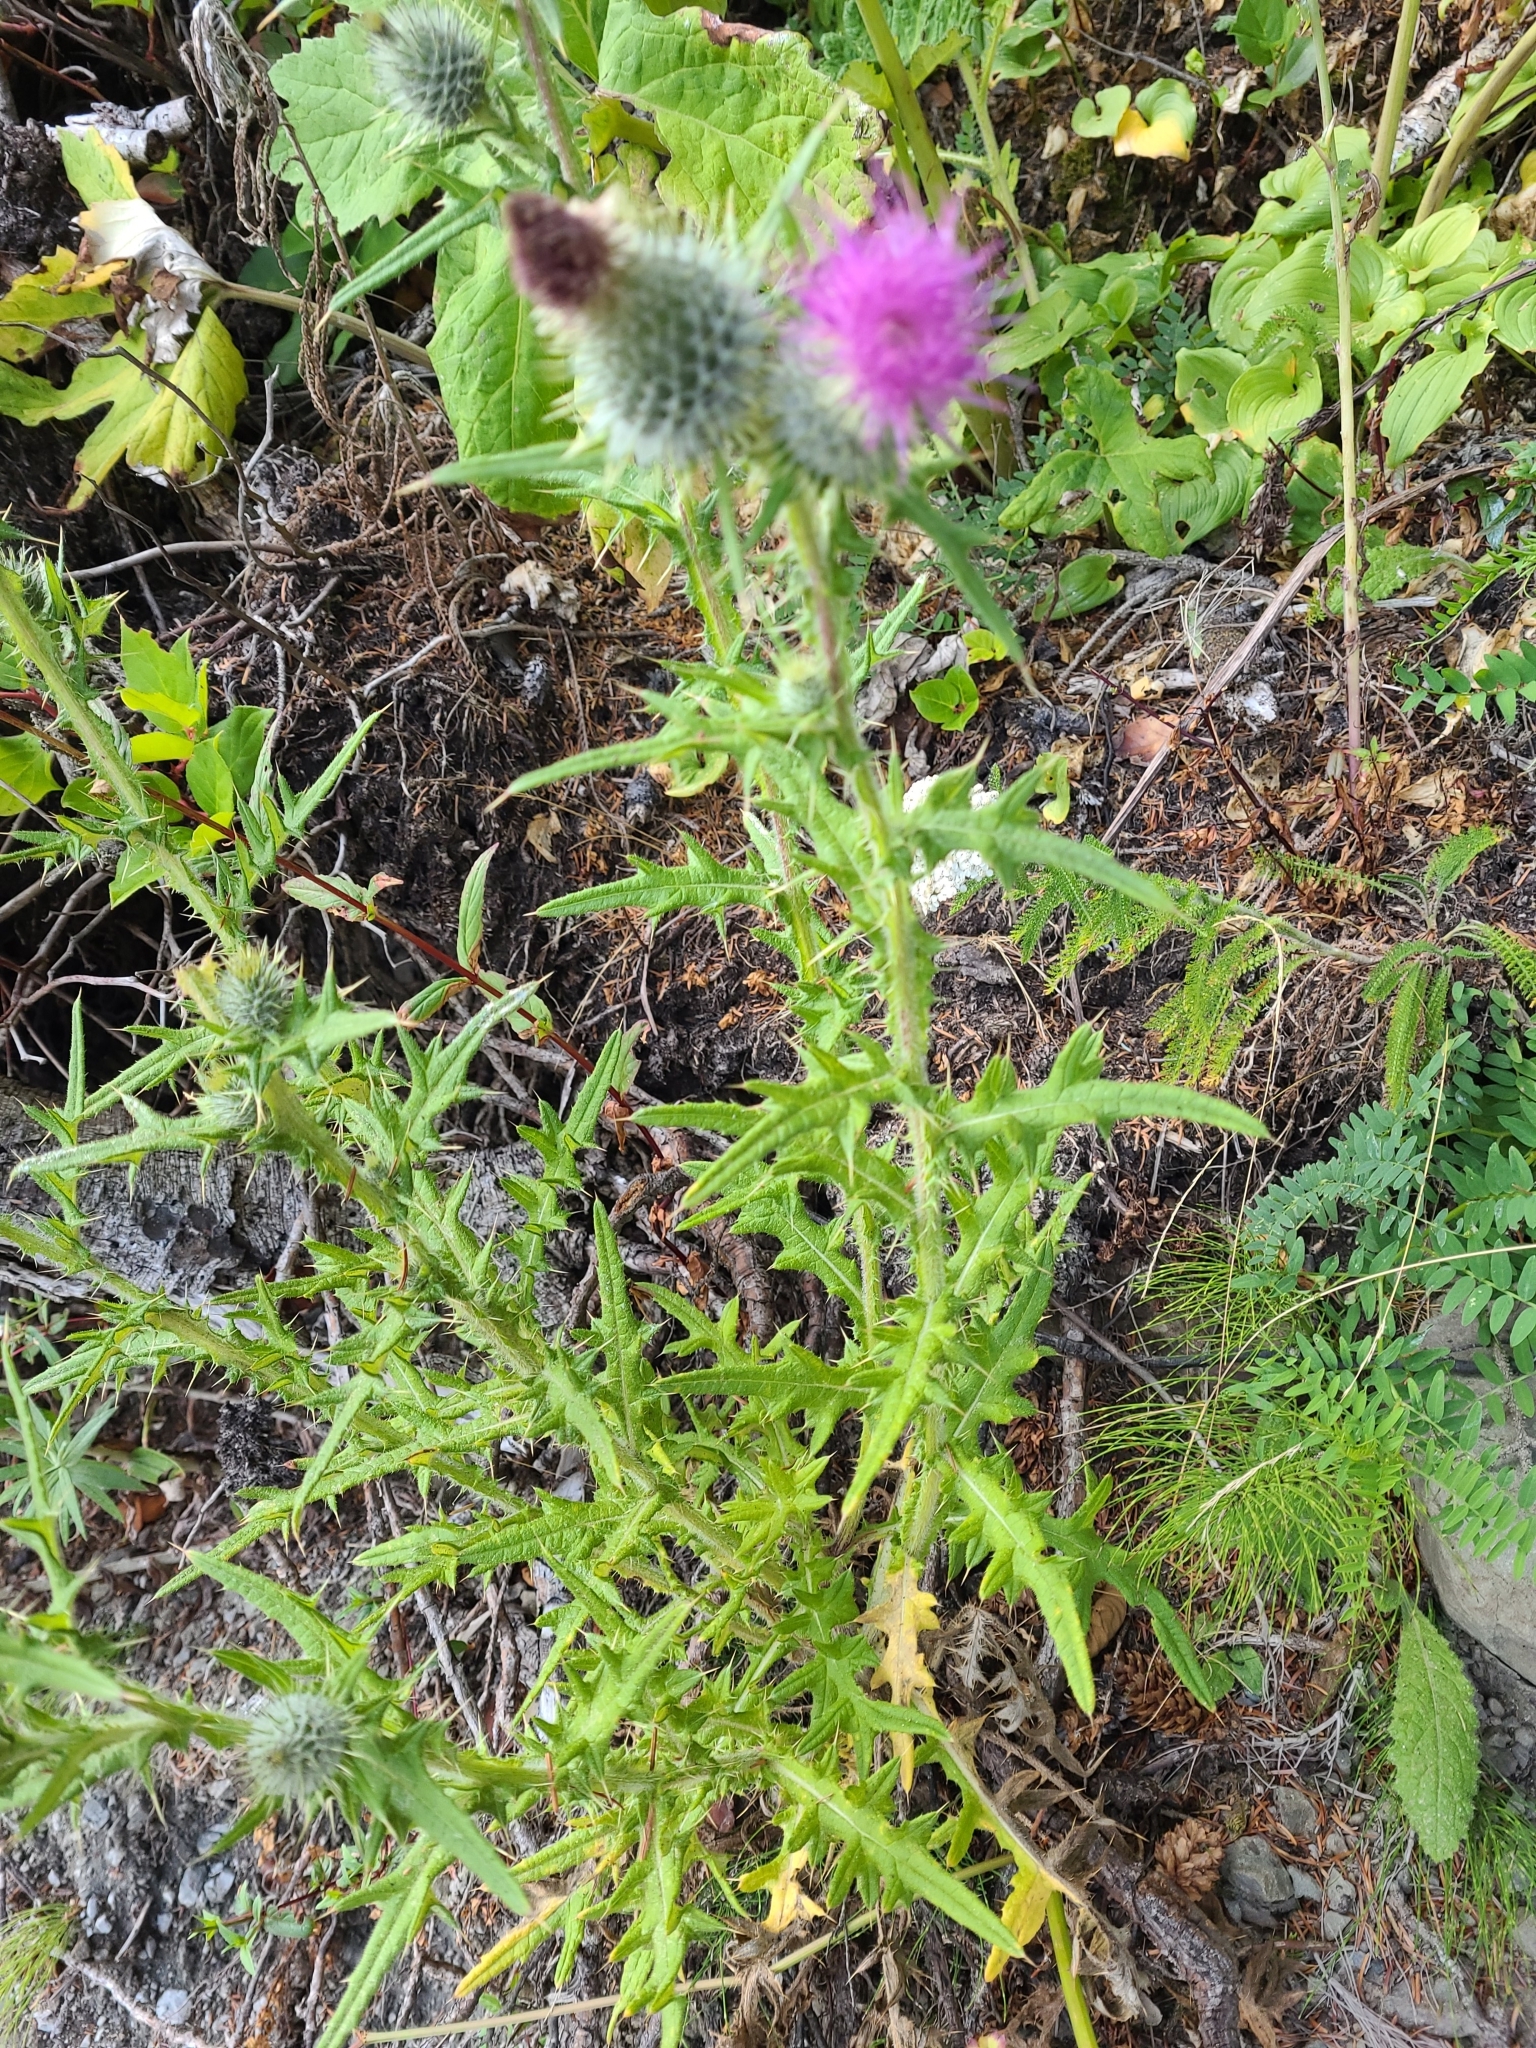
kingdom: Plantae
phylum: Tracheophyta
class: Magnoliopsida
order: Asterales
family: Asteraceae
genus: Cirsium
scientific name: Cirsium vulgare
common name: Bull thistle
